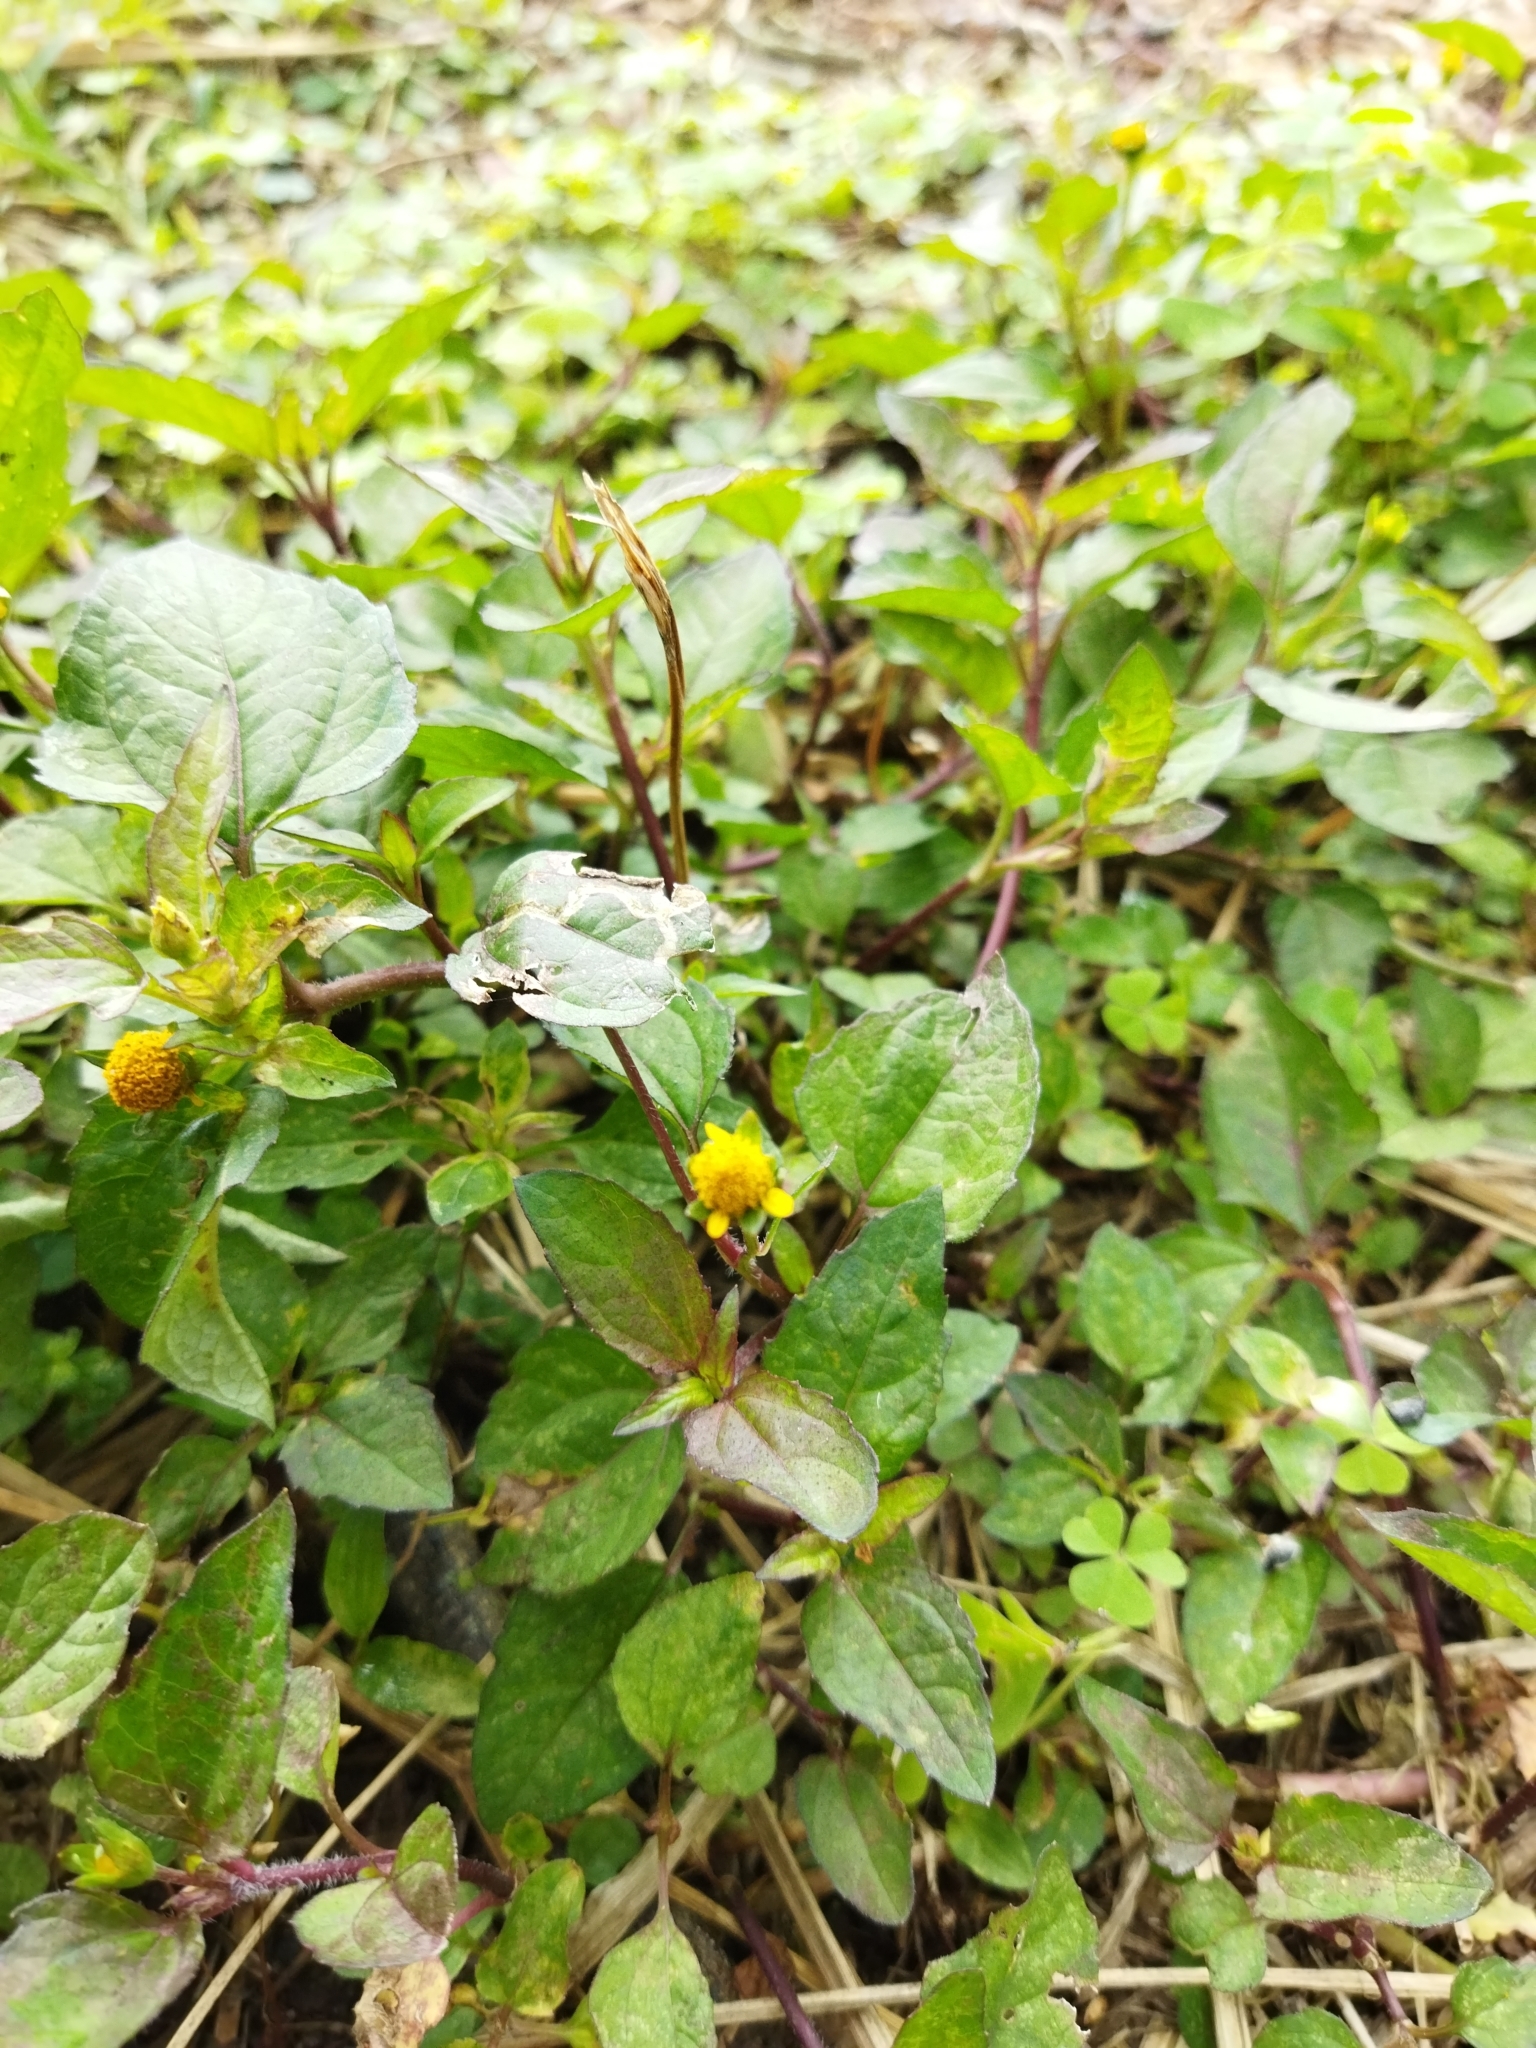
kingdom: Plantae
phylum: Tracheophyta
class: Magnoliopsida
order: Asterales
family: Asteraceae
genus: Synedrella
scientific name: Synedrella nodiflora
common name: Nodeweed
